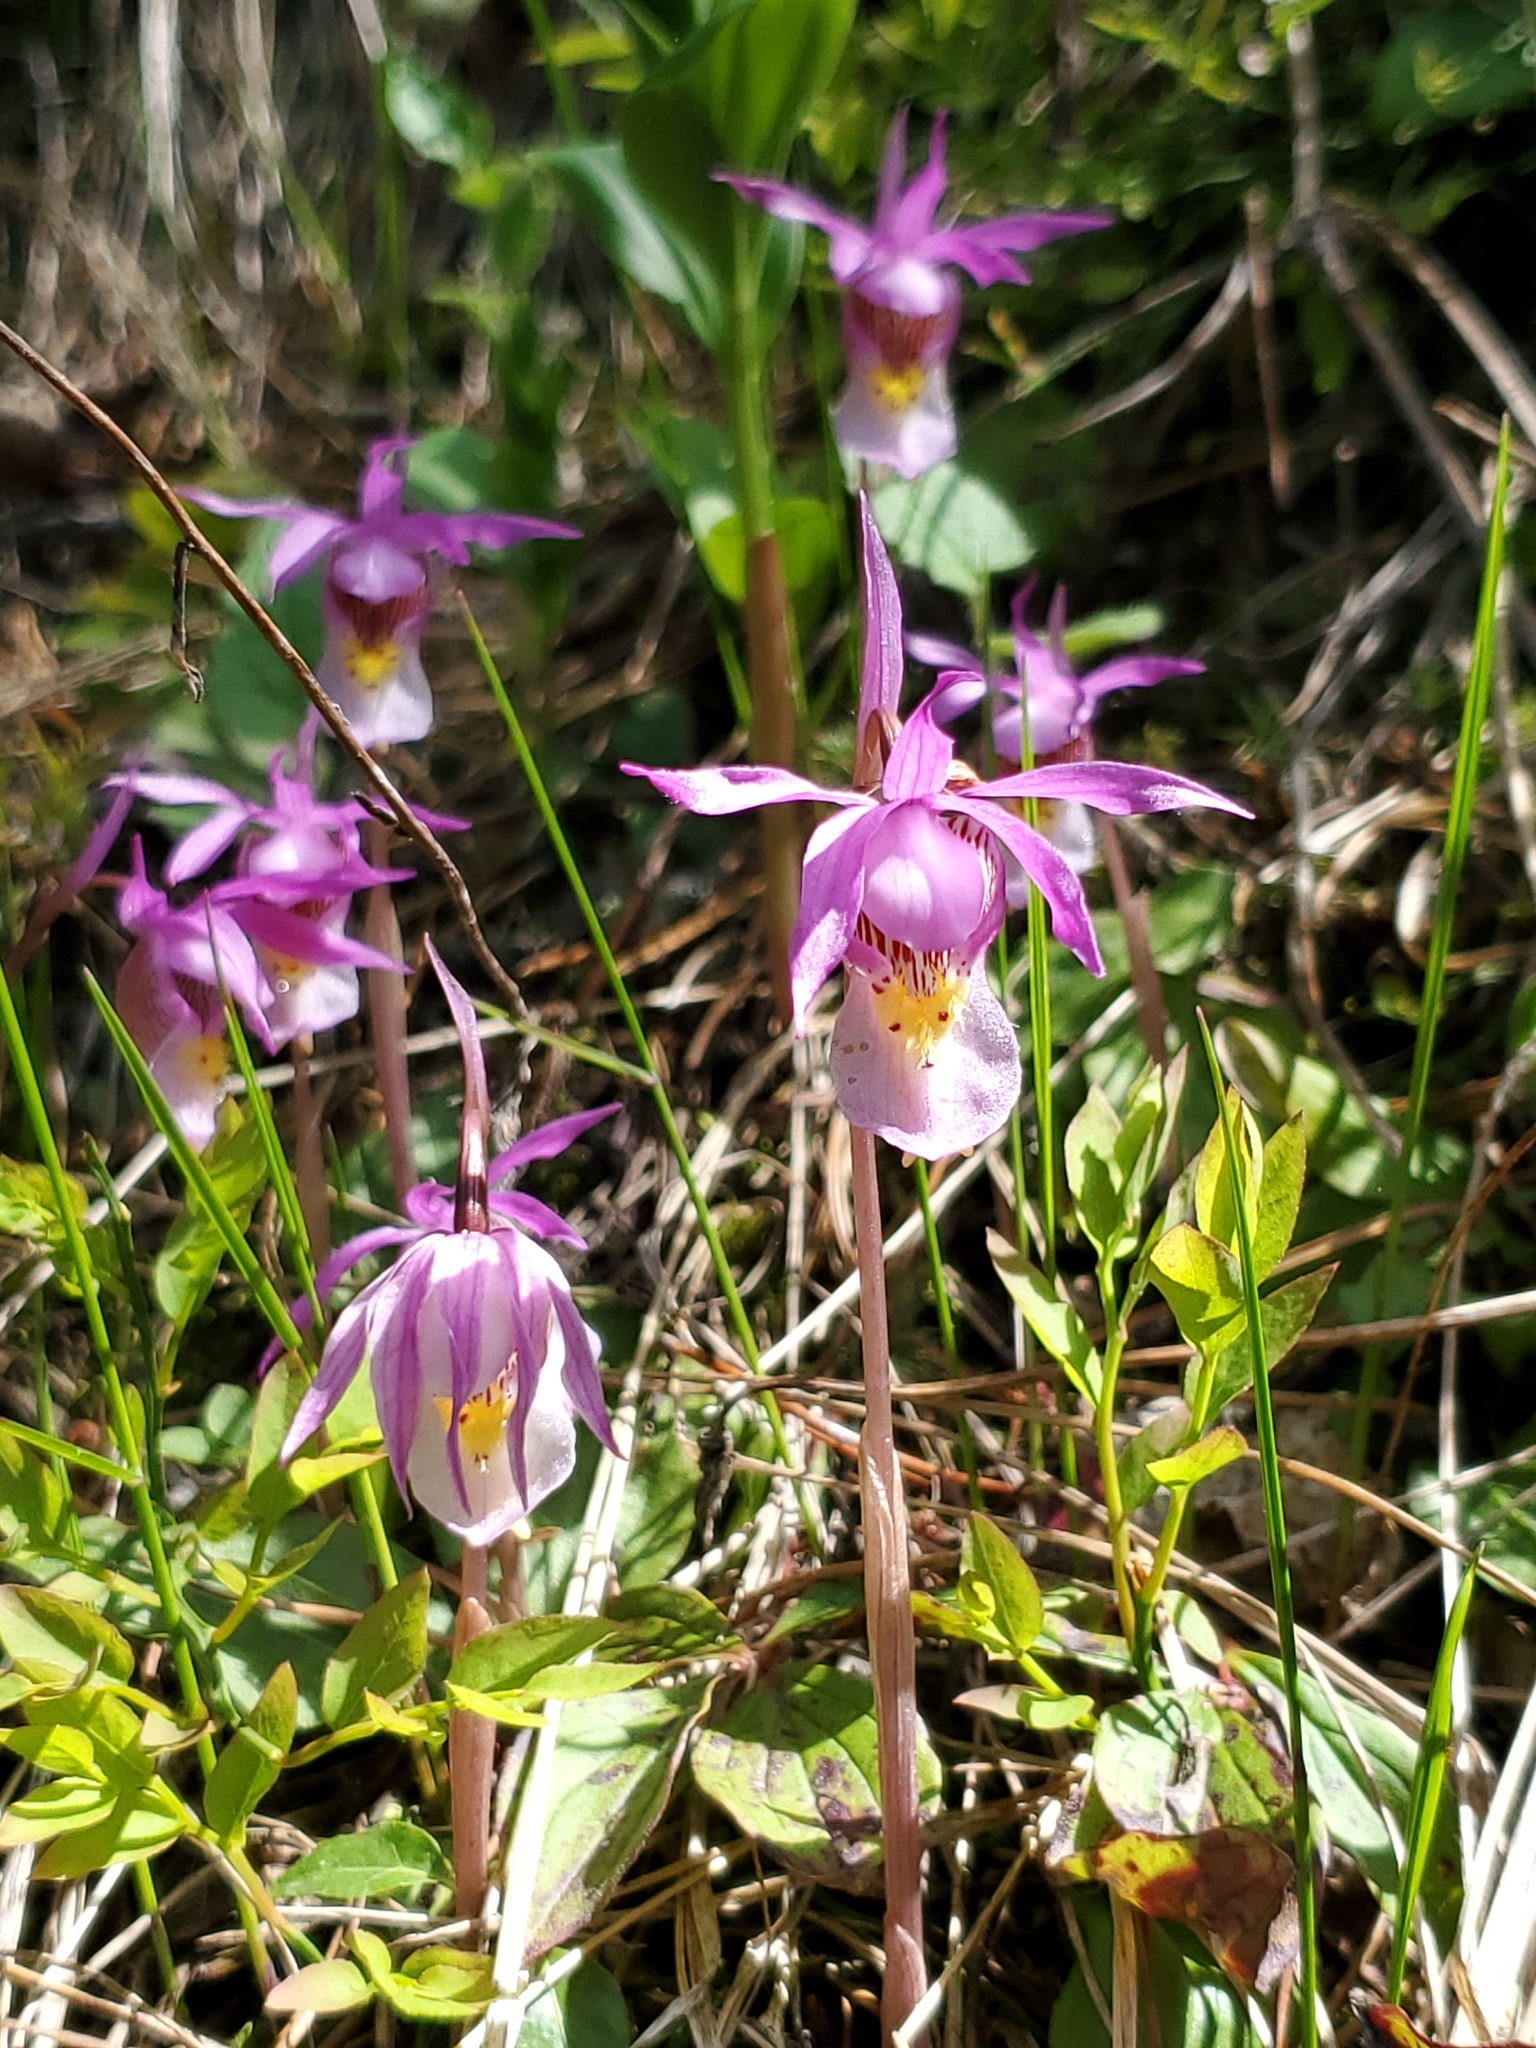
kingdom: Plantae
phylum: Tracheophyta
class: Liliopsida
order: Asparagales
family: Orchidaceae
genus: Calypso
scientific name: Calypso bulbosa
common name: Calypso
